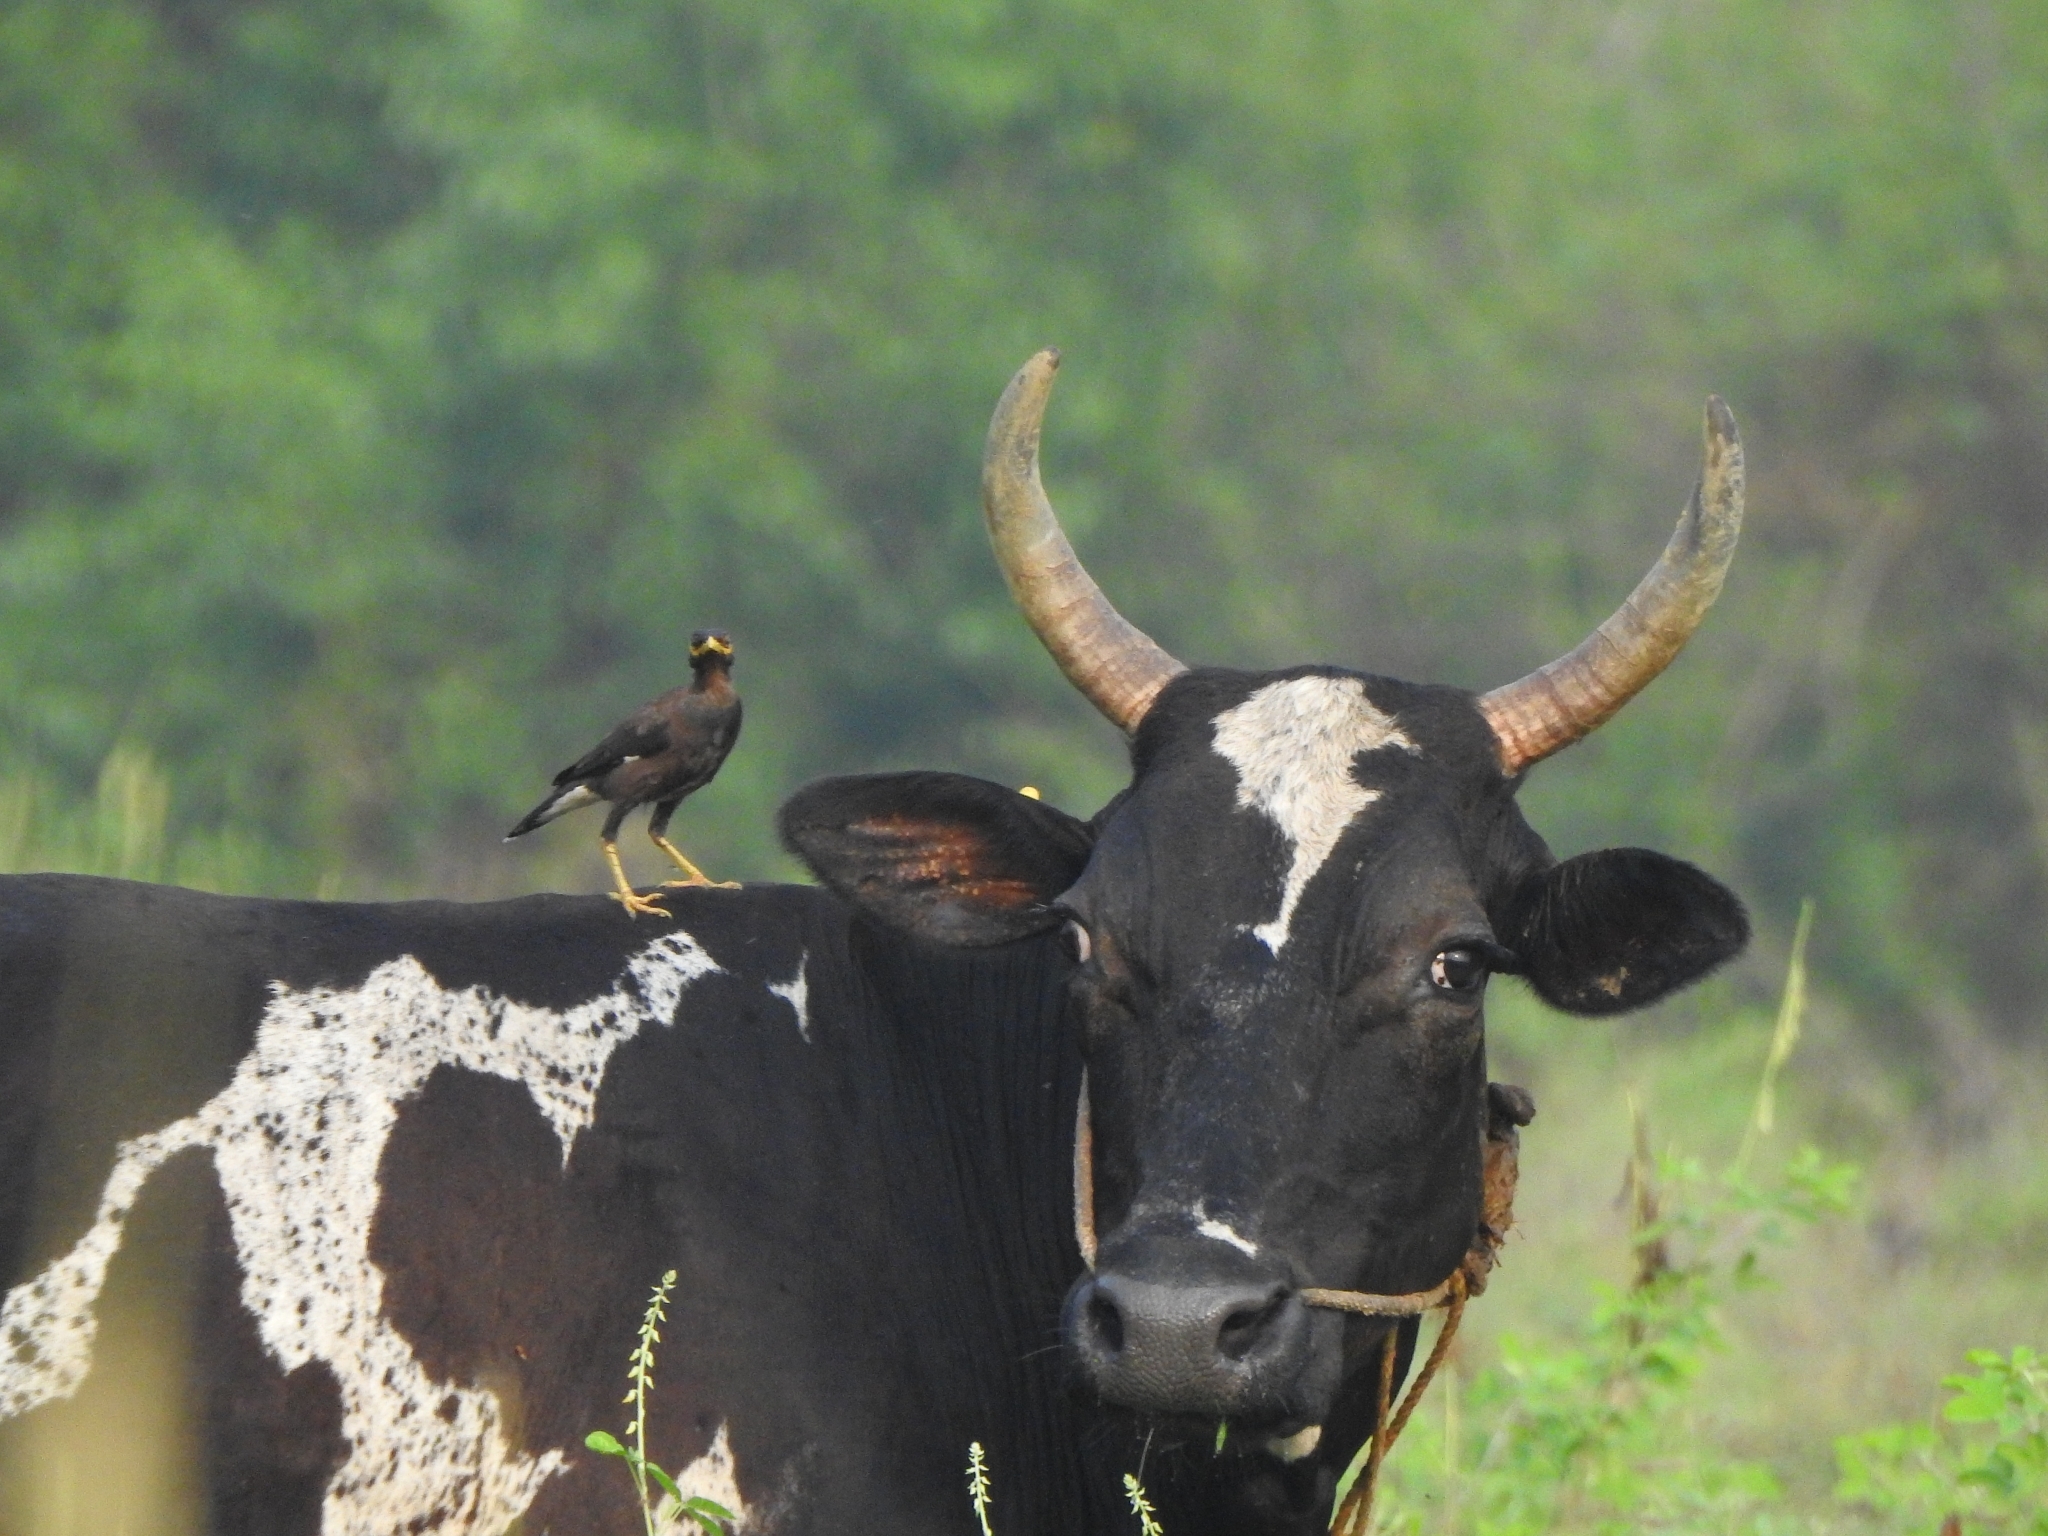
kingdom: Animalia
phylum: Chordata
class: Aves
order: Passeriformes
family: Sturnidae
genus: Acridotheres
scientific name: Acridotheres tristis
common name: Common myna
